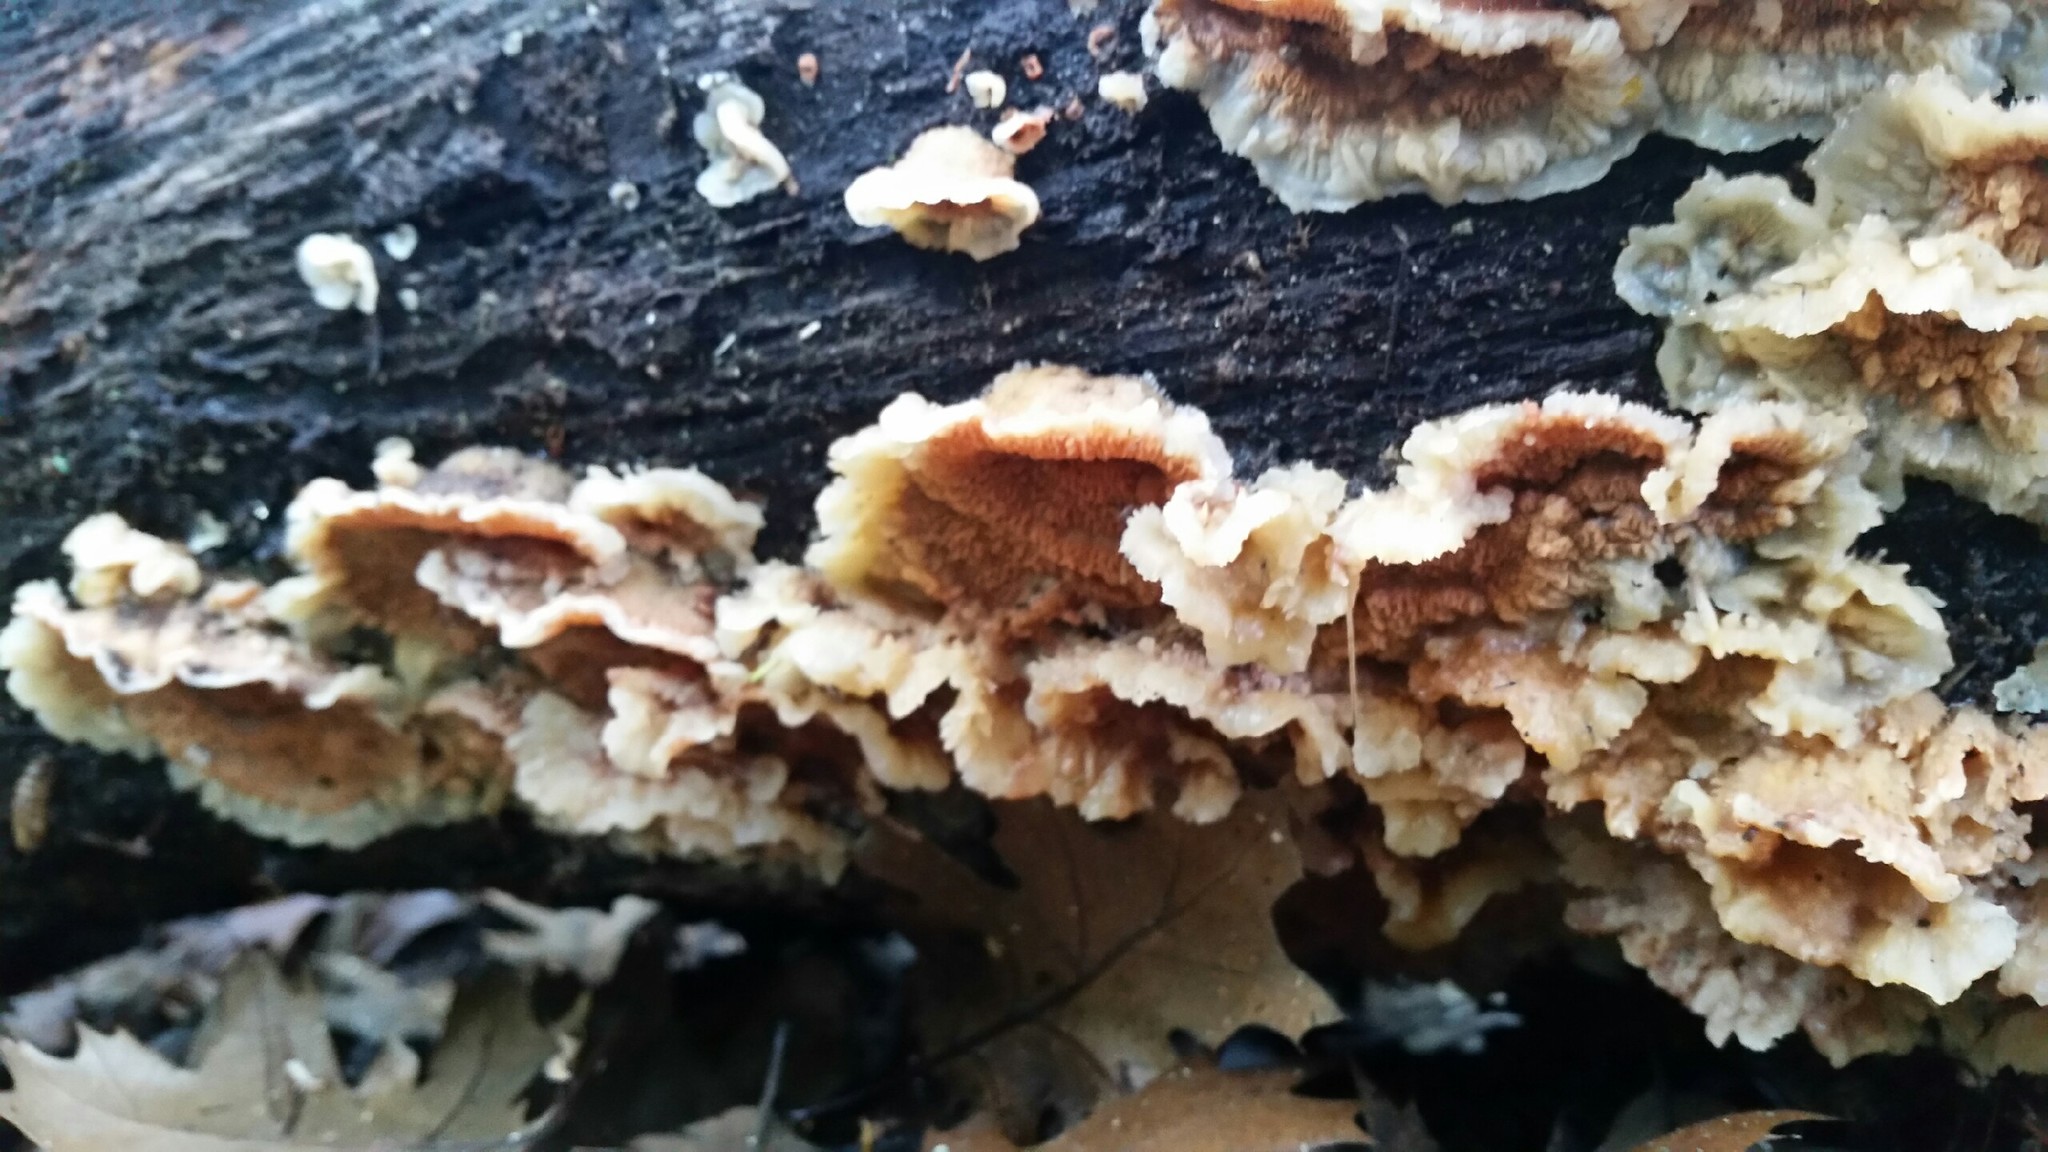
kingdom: Fungi
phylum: Basidiomycota
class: Agaricomycetes
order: Polyporales
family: Meruliaceae
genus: Phlebia
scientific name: Phlebia tremellosa
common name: Jelly rot
